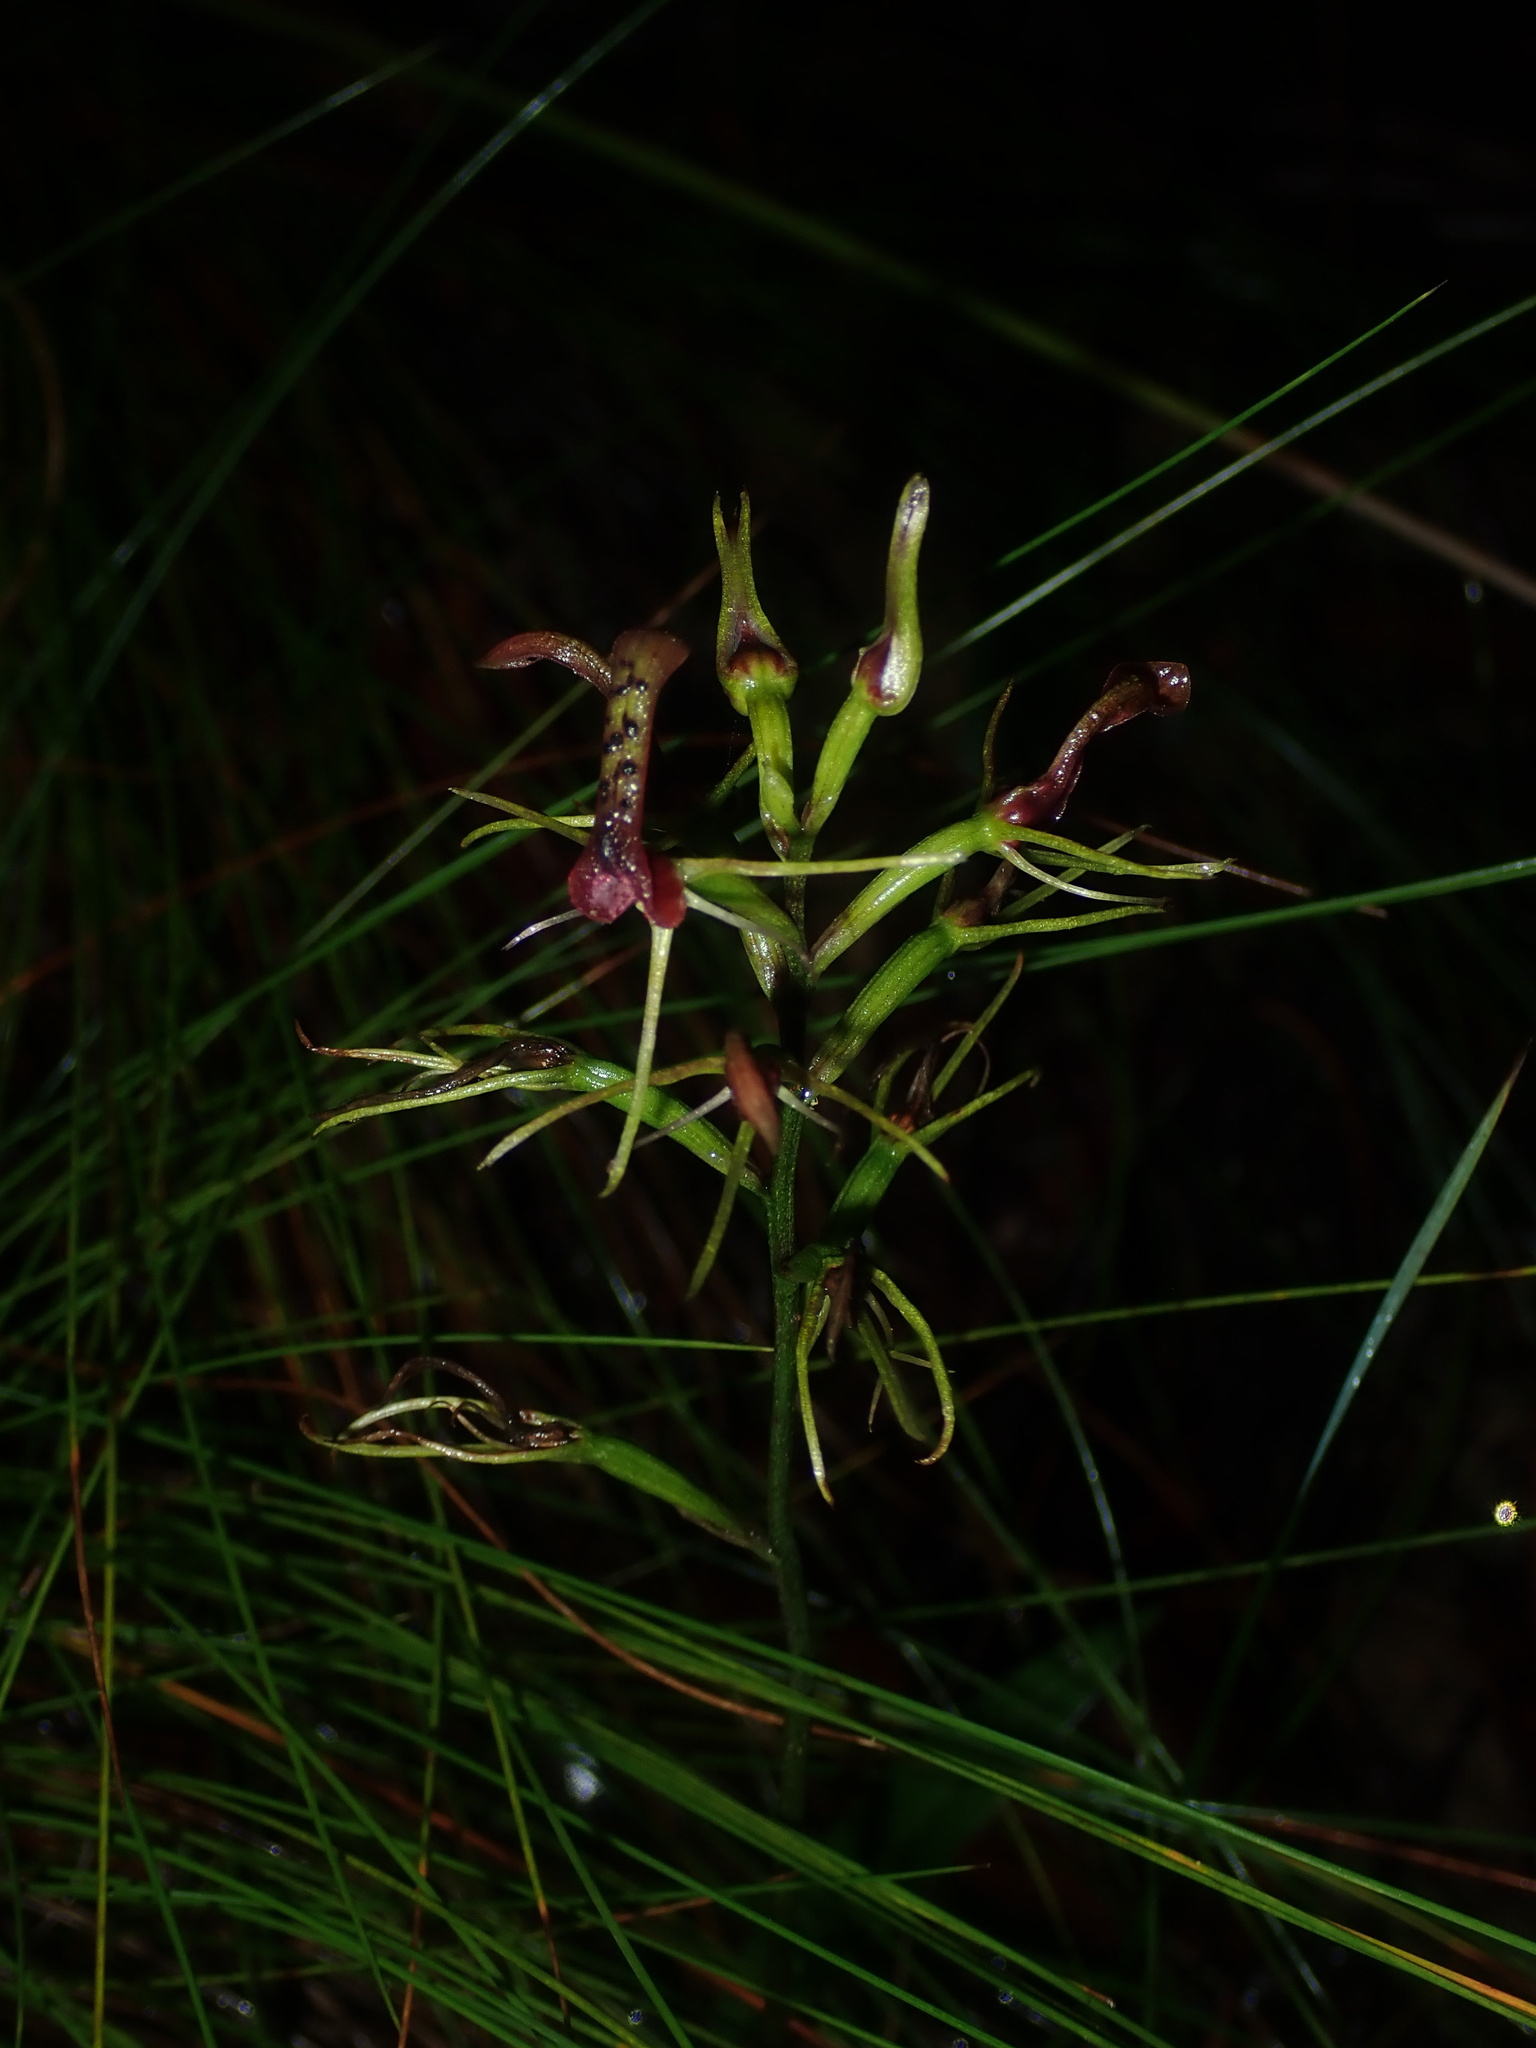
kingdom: Plantae
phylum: Tracheophyta
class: Liliopsida
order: Asparagales
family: Orchidaceae
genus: Cryptostylis
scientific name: Cryptostylis leptochila
